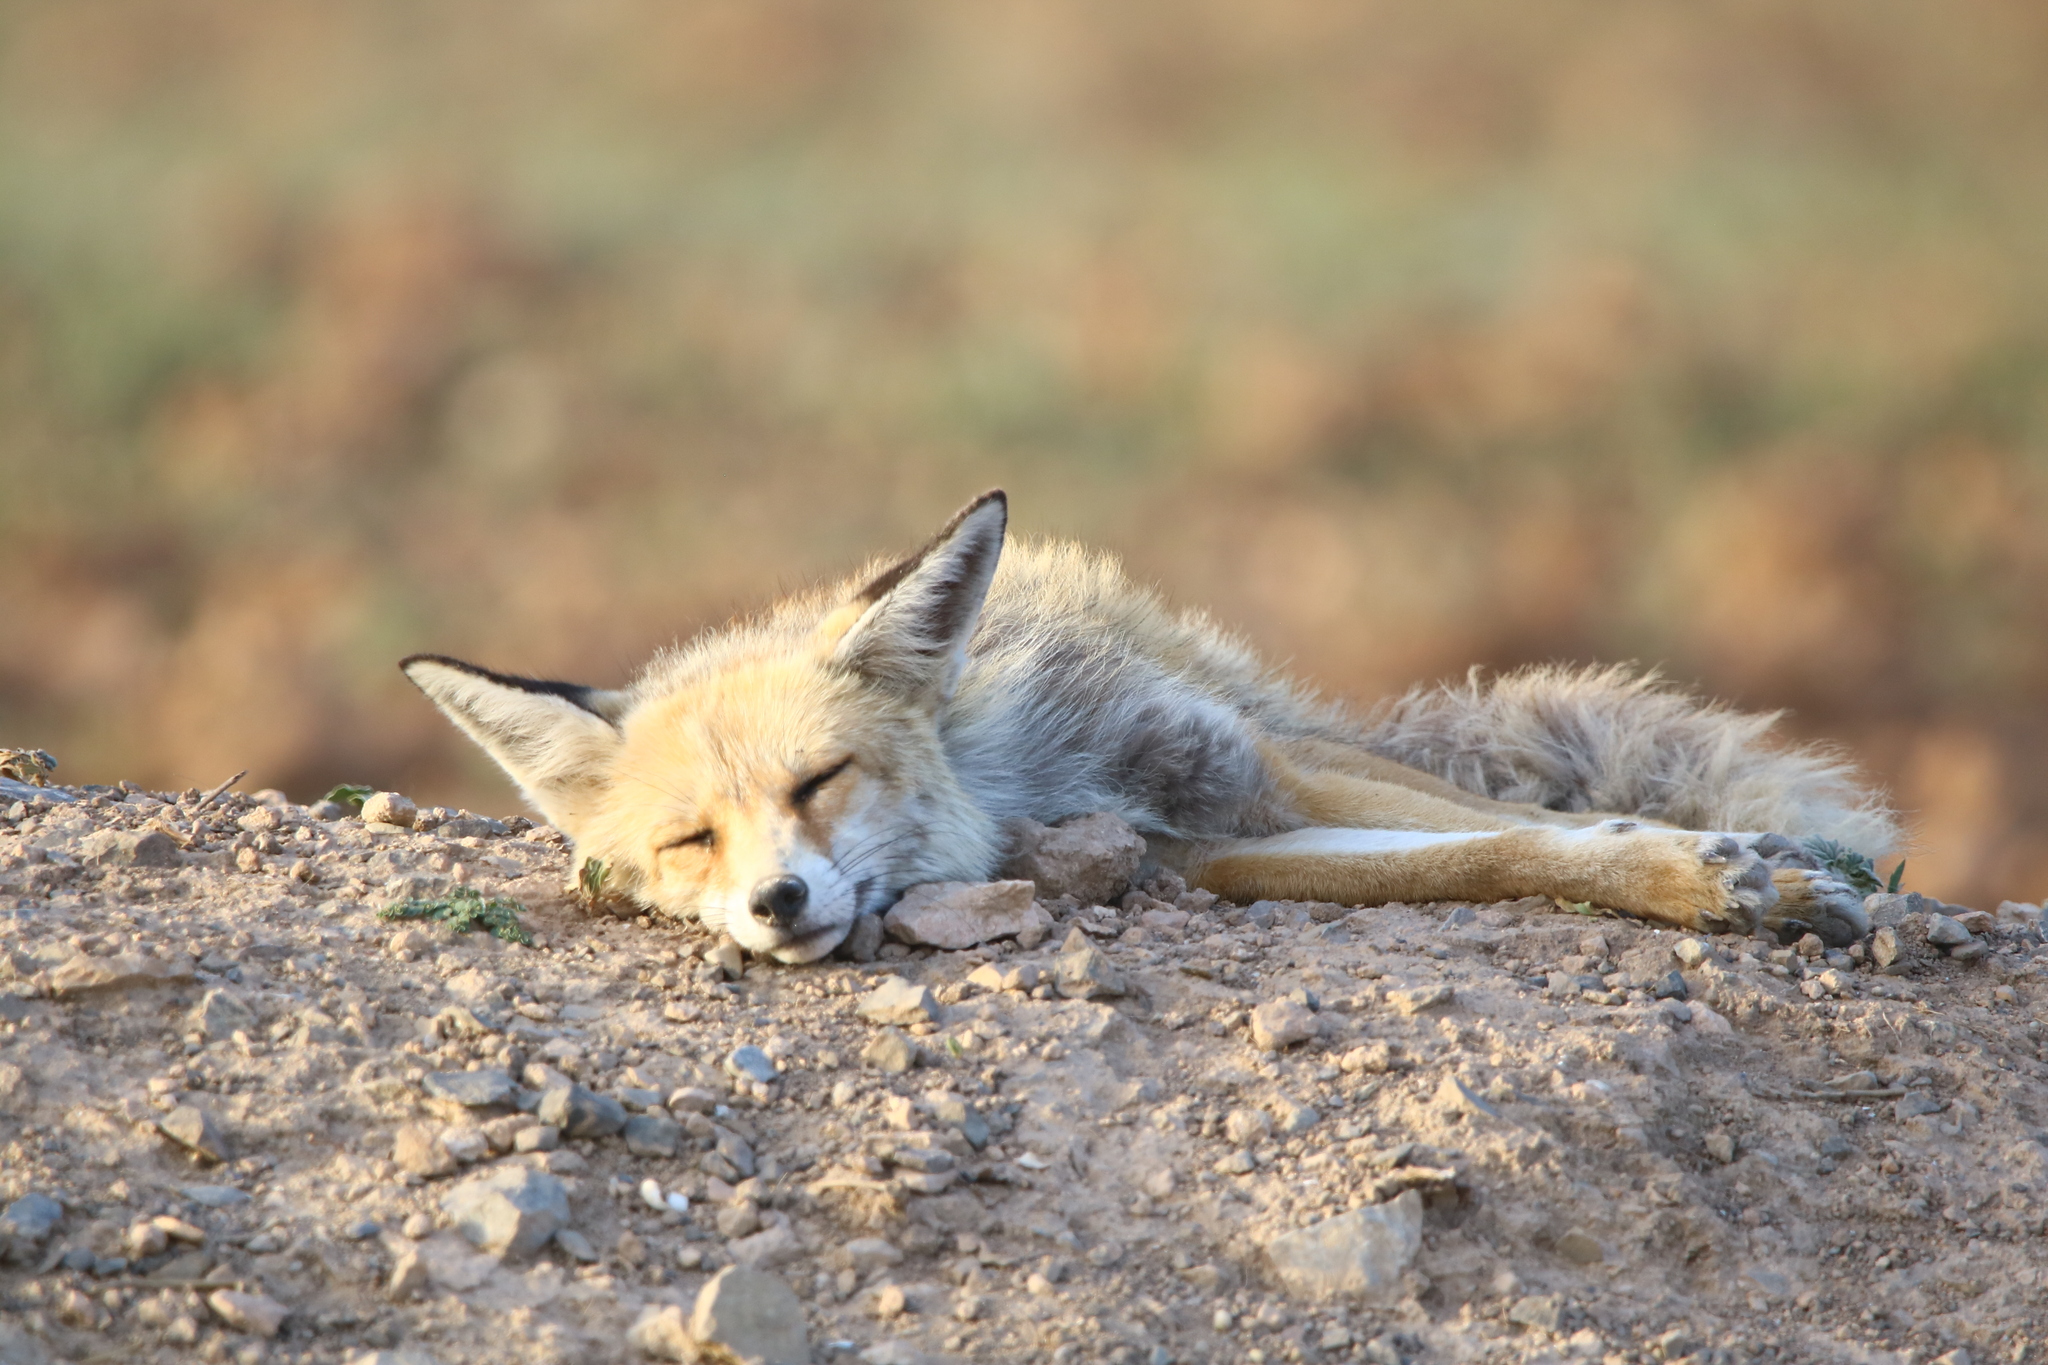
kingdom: Animalia
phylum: Chordata
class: Mammalia
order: Carnivora
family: Canidae
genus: Vulpes
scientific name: Vulpes vulpes
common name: Red fox
